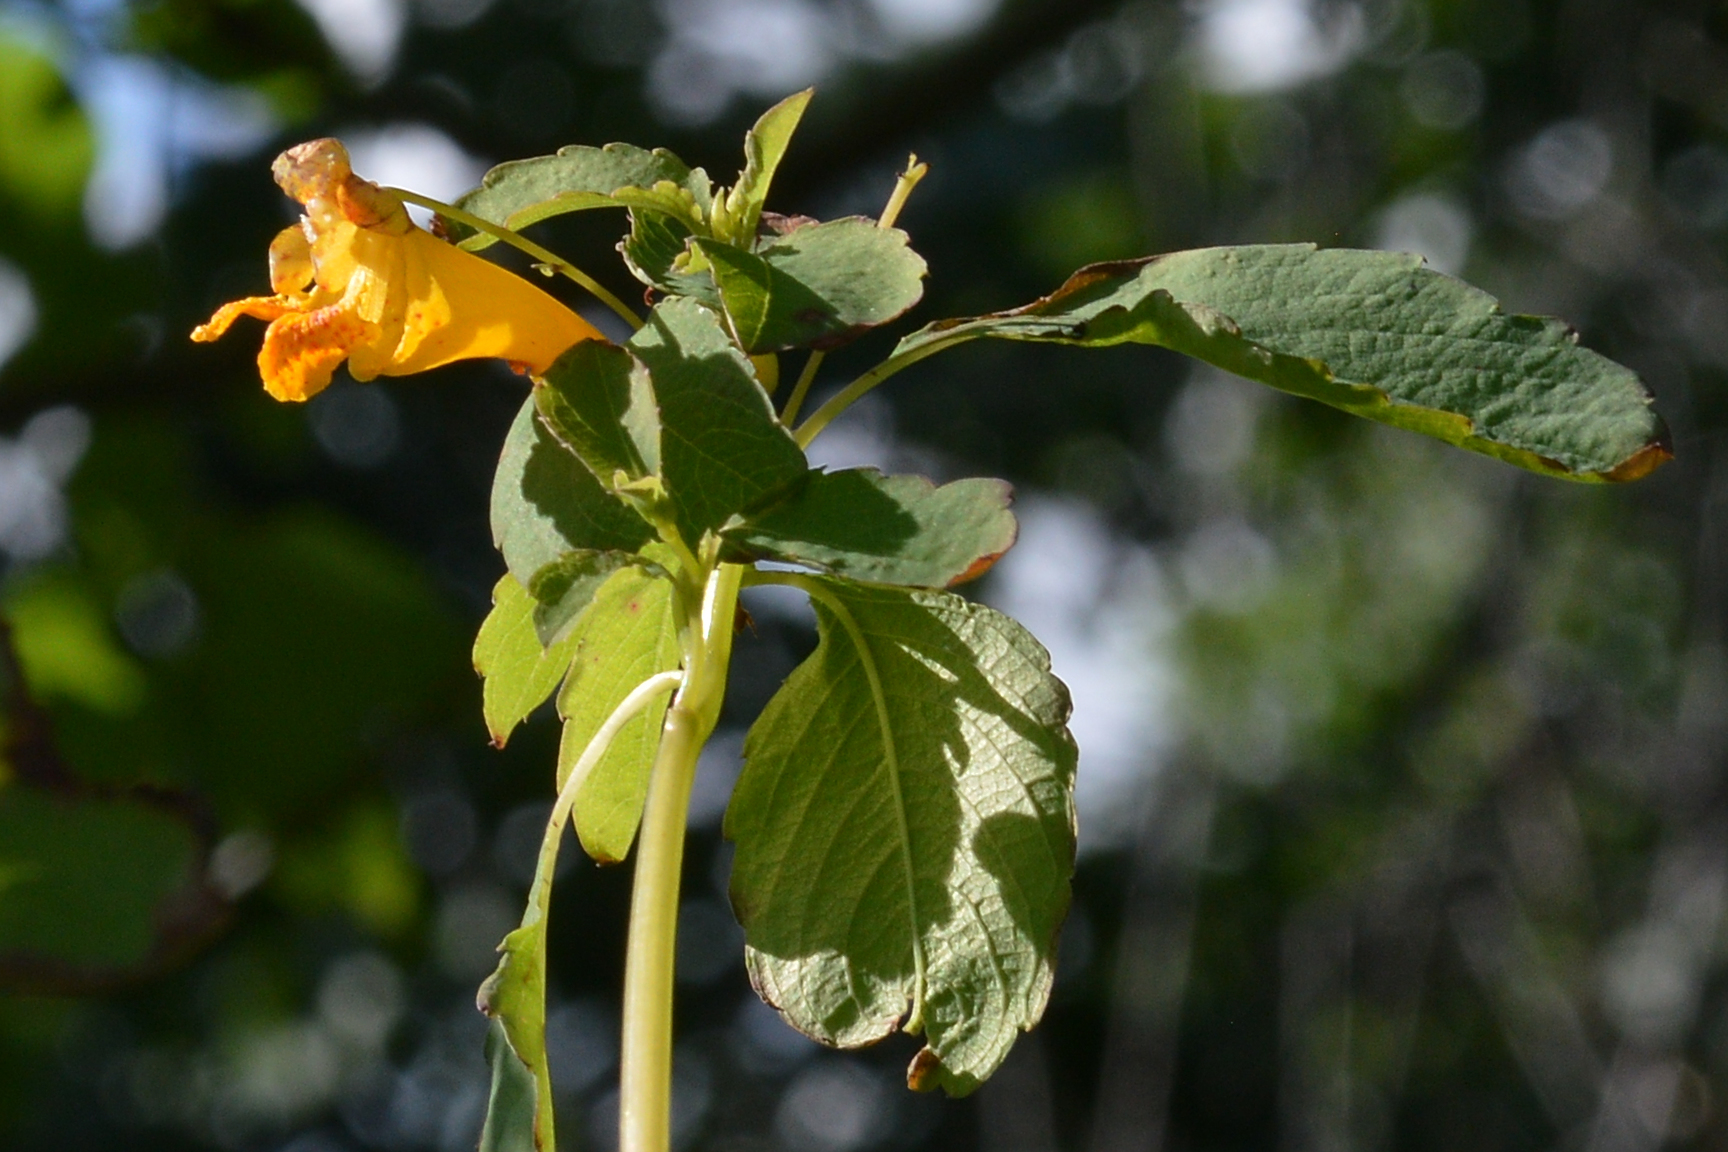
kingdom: Plantae
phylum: Tracheophyta
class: Magnoliopsida
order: Ericales
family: Balsaminaceae
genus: Impatiens
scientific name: Impatiens capensis
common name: Orange balsam
